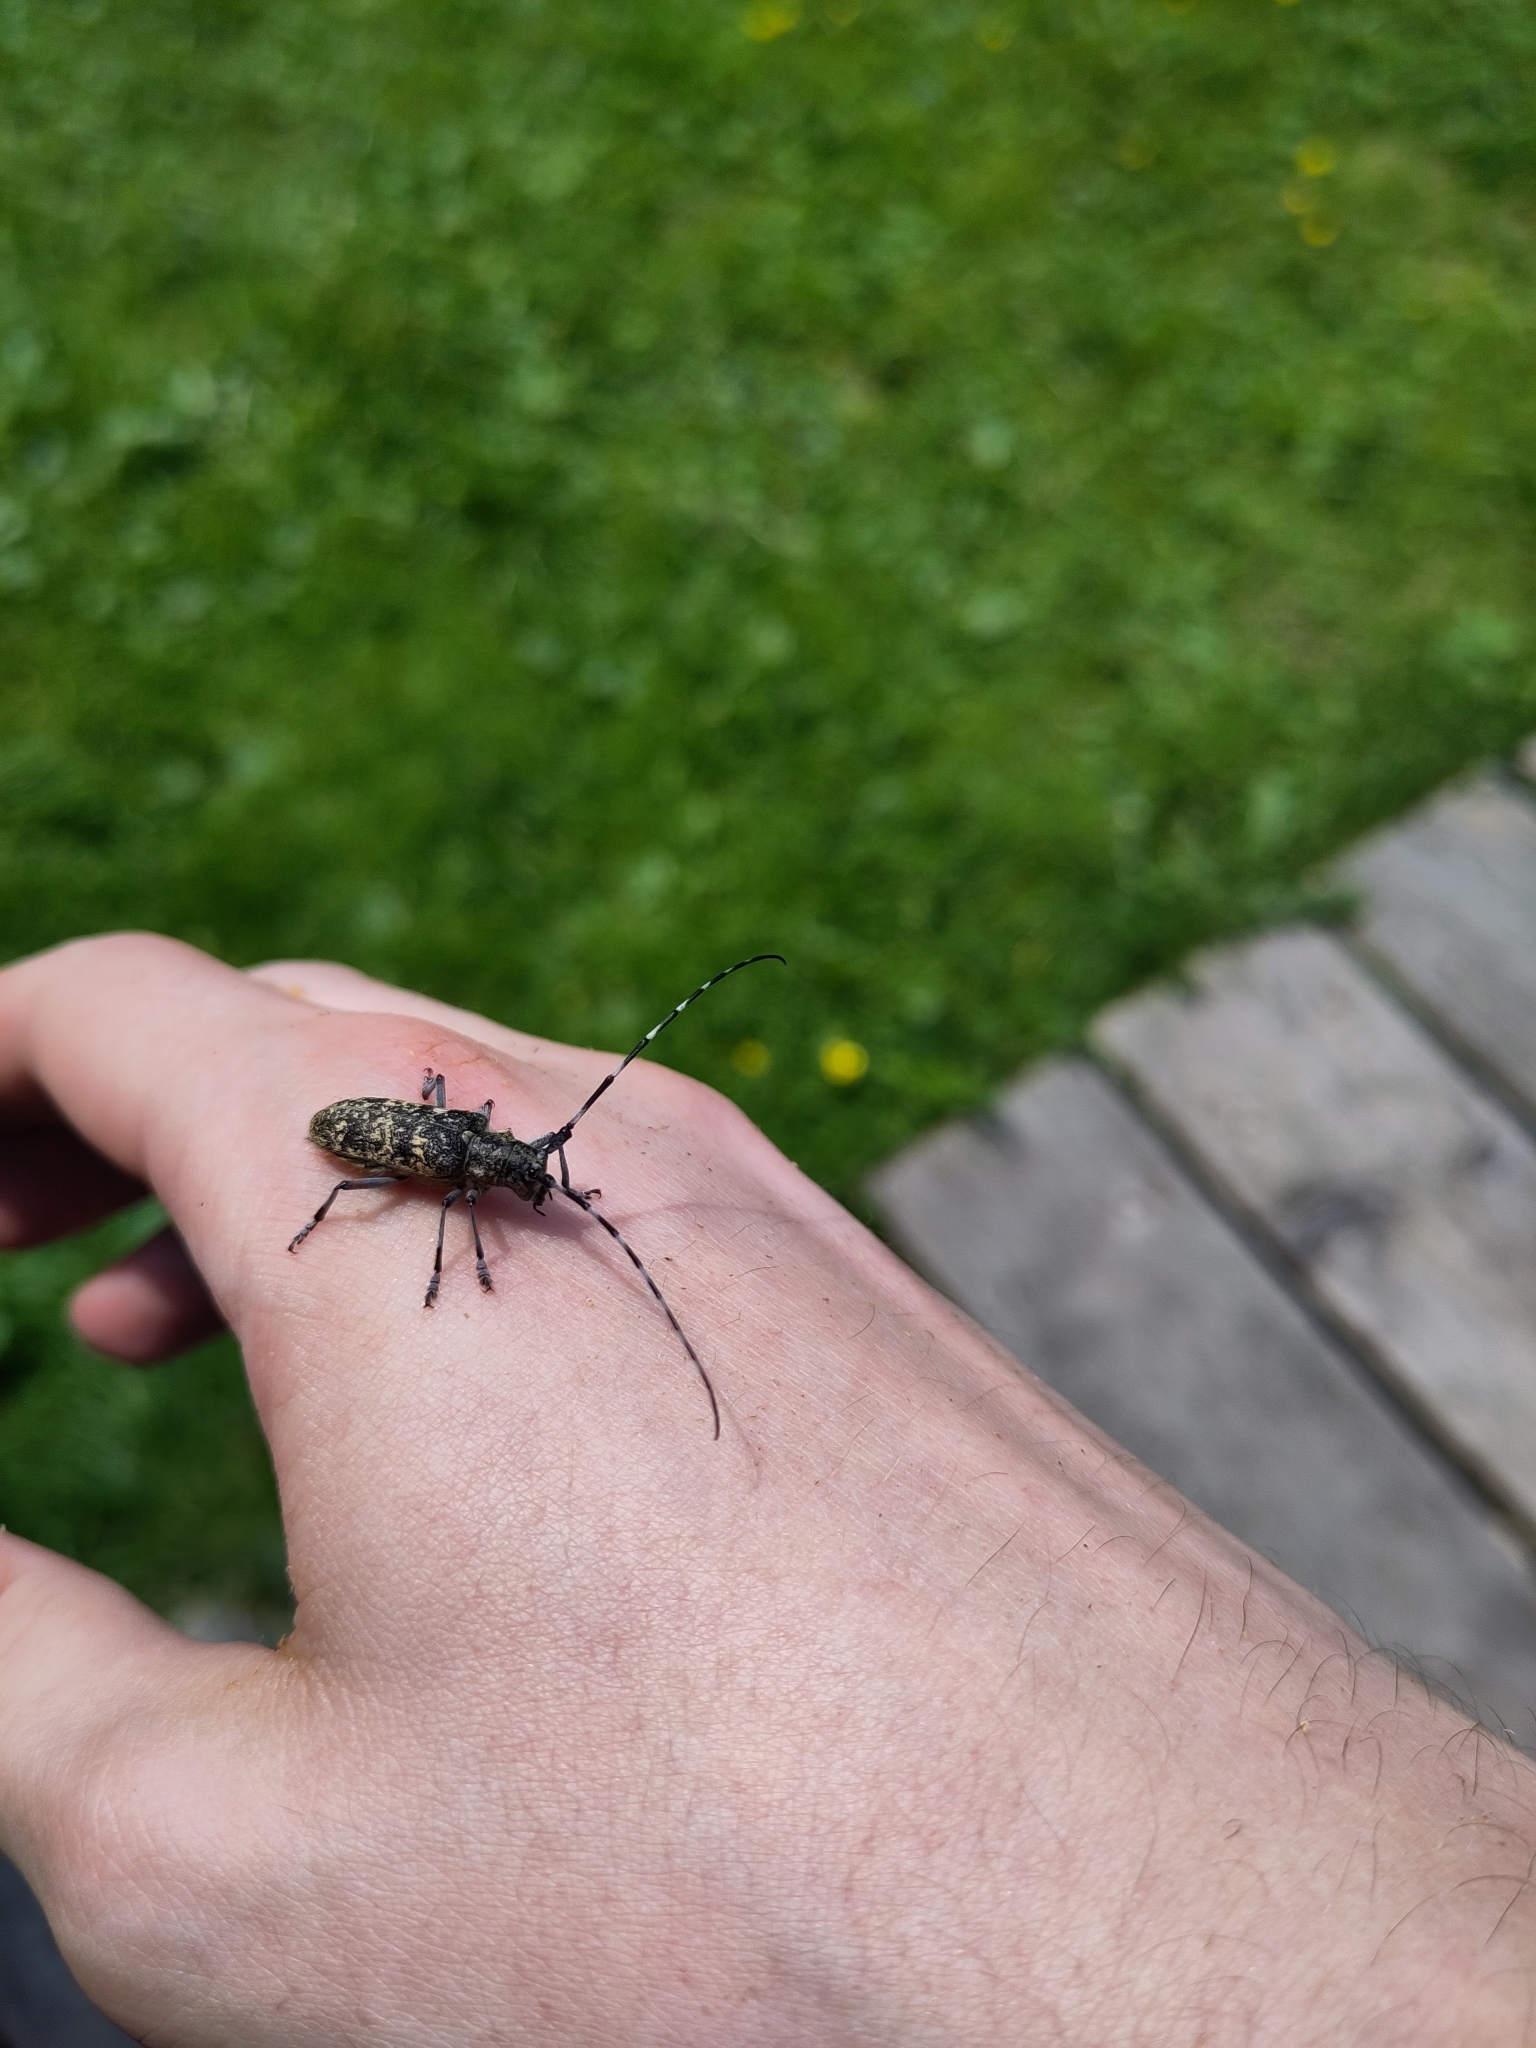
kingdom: Animalia
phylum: Arthropoda
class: Insecta
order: Coleoptera
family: Cerambycidae
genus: Monochamus
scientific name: Monochamus sutor
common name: Pine sawyer
